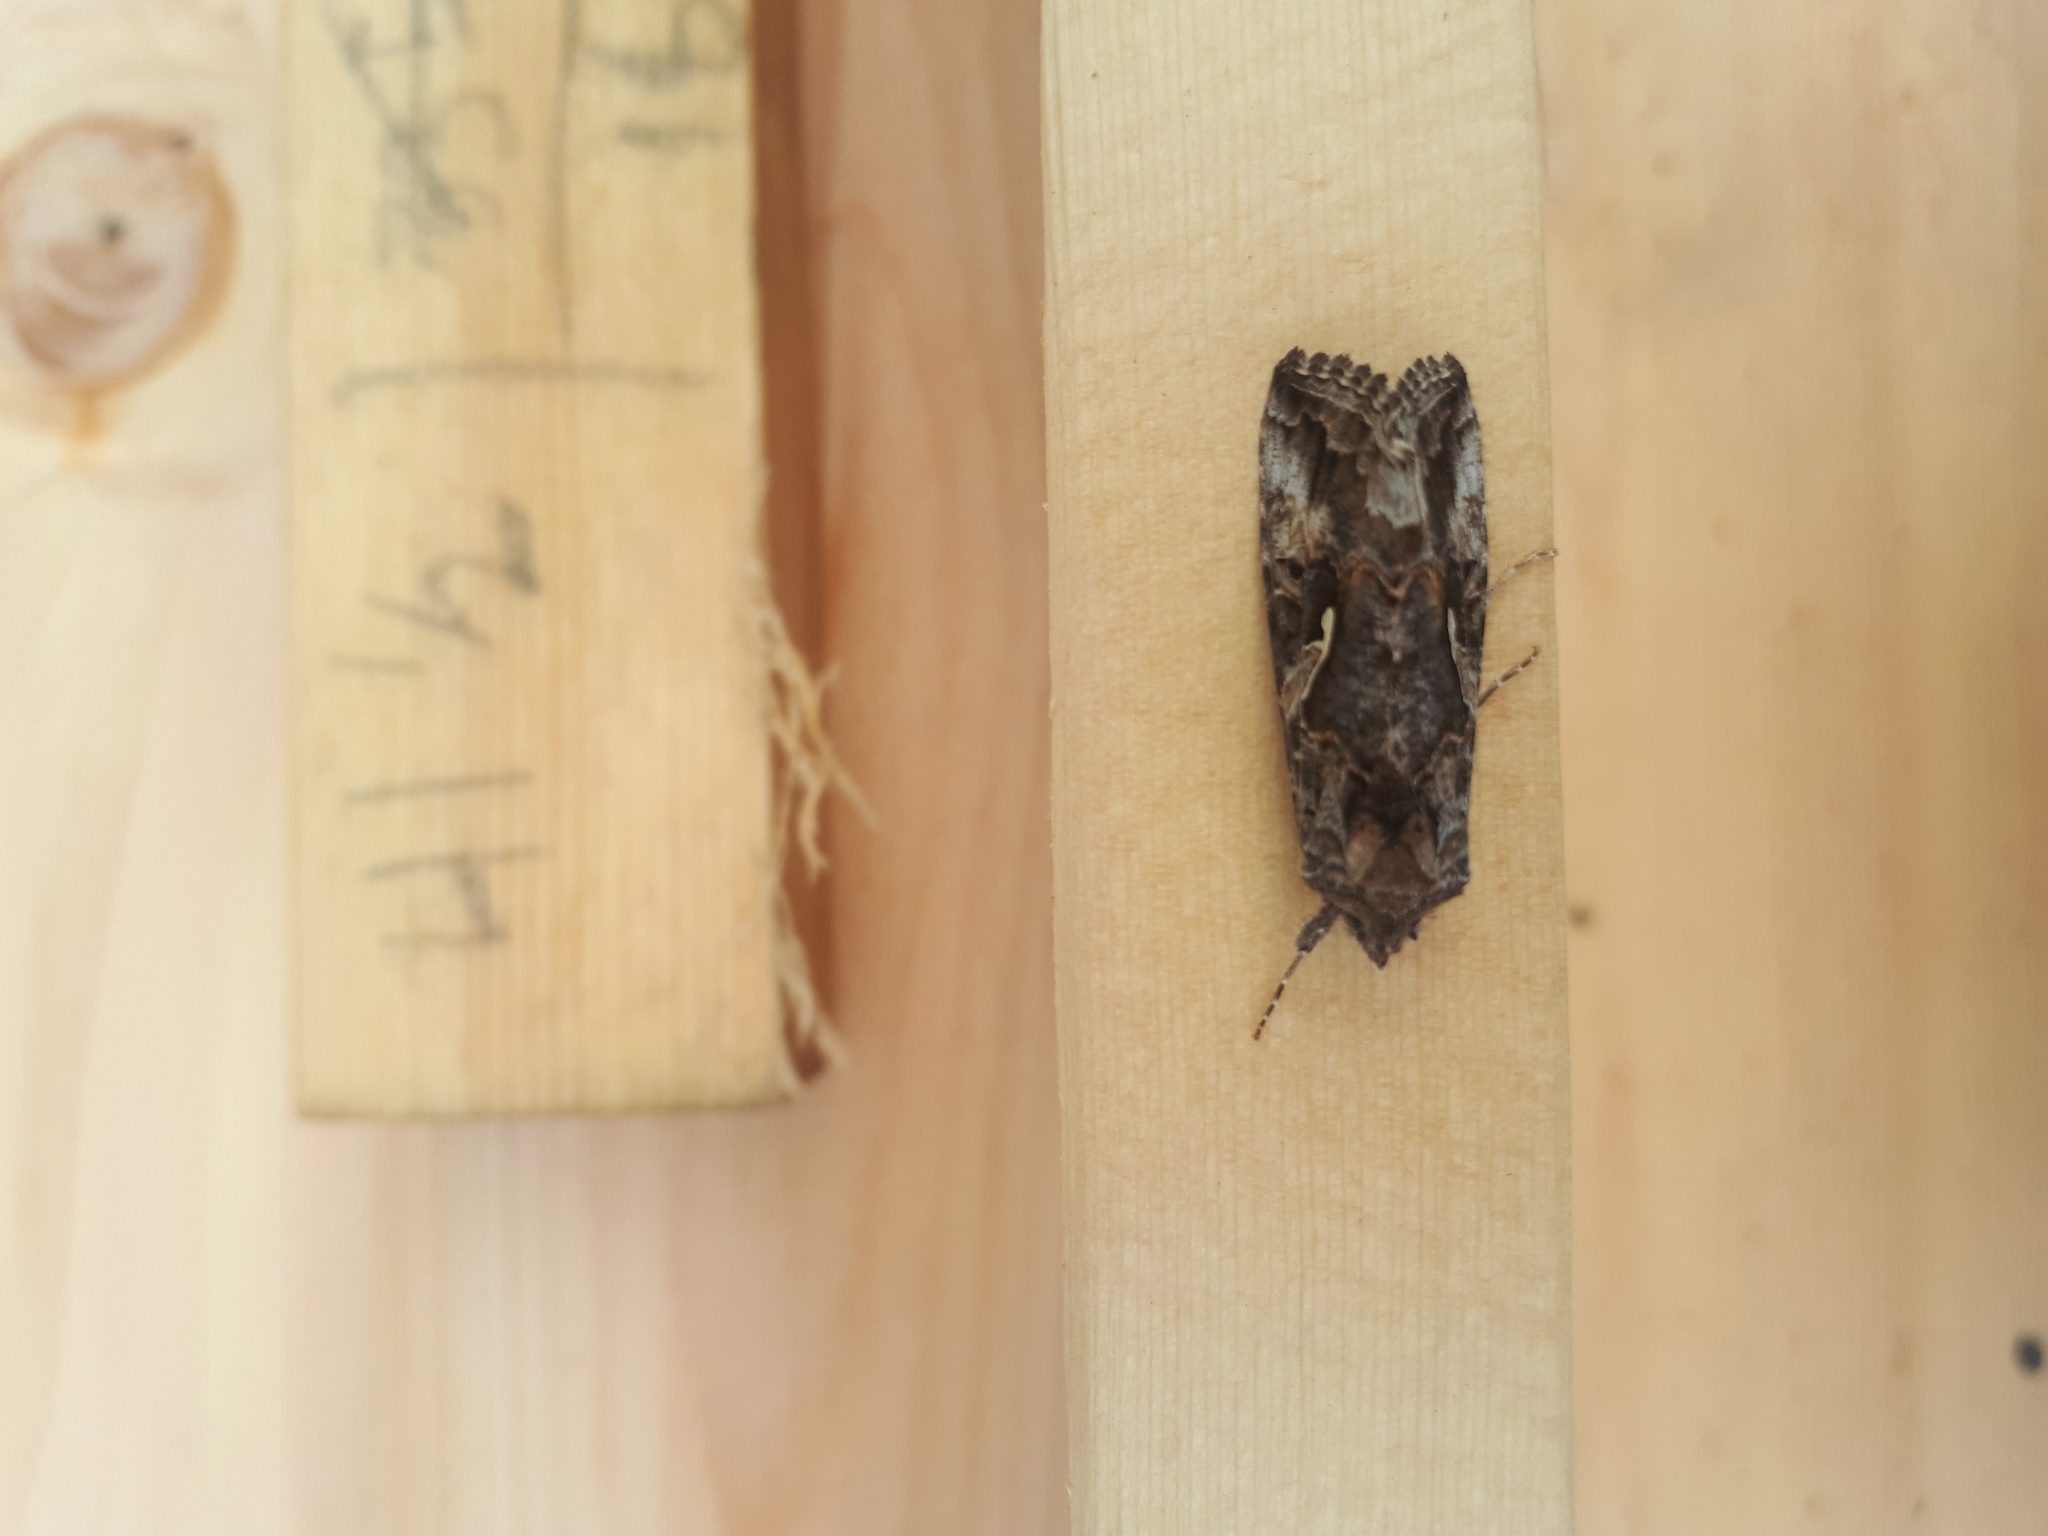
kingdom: Animalia
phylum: Arthropoda
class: Insecta
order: Lepidoptera
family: Noctuidae
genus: Autographa
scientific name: Autographa californica
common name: Alfalfa looper
